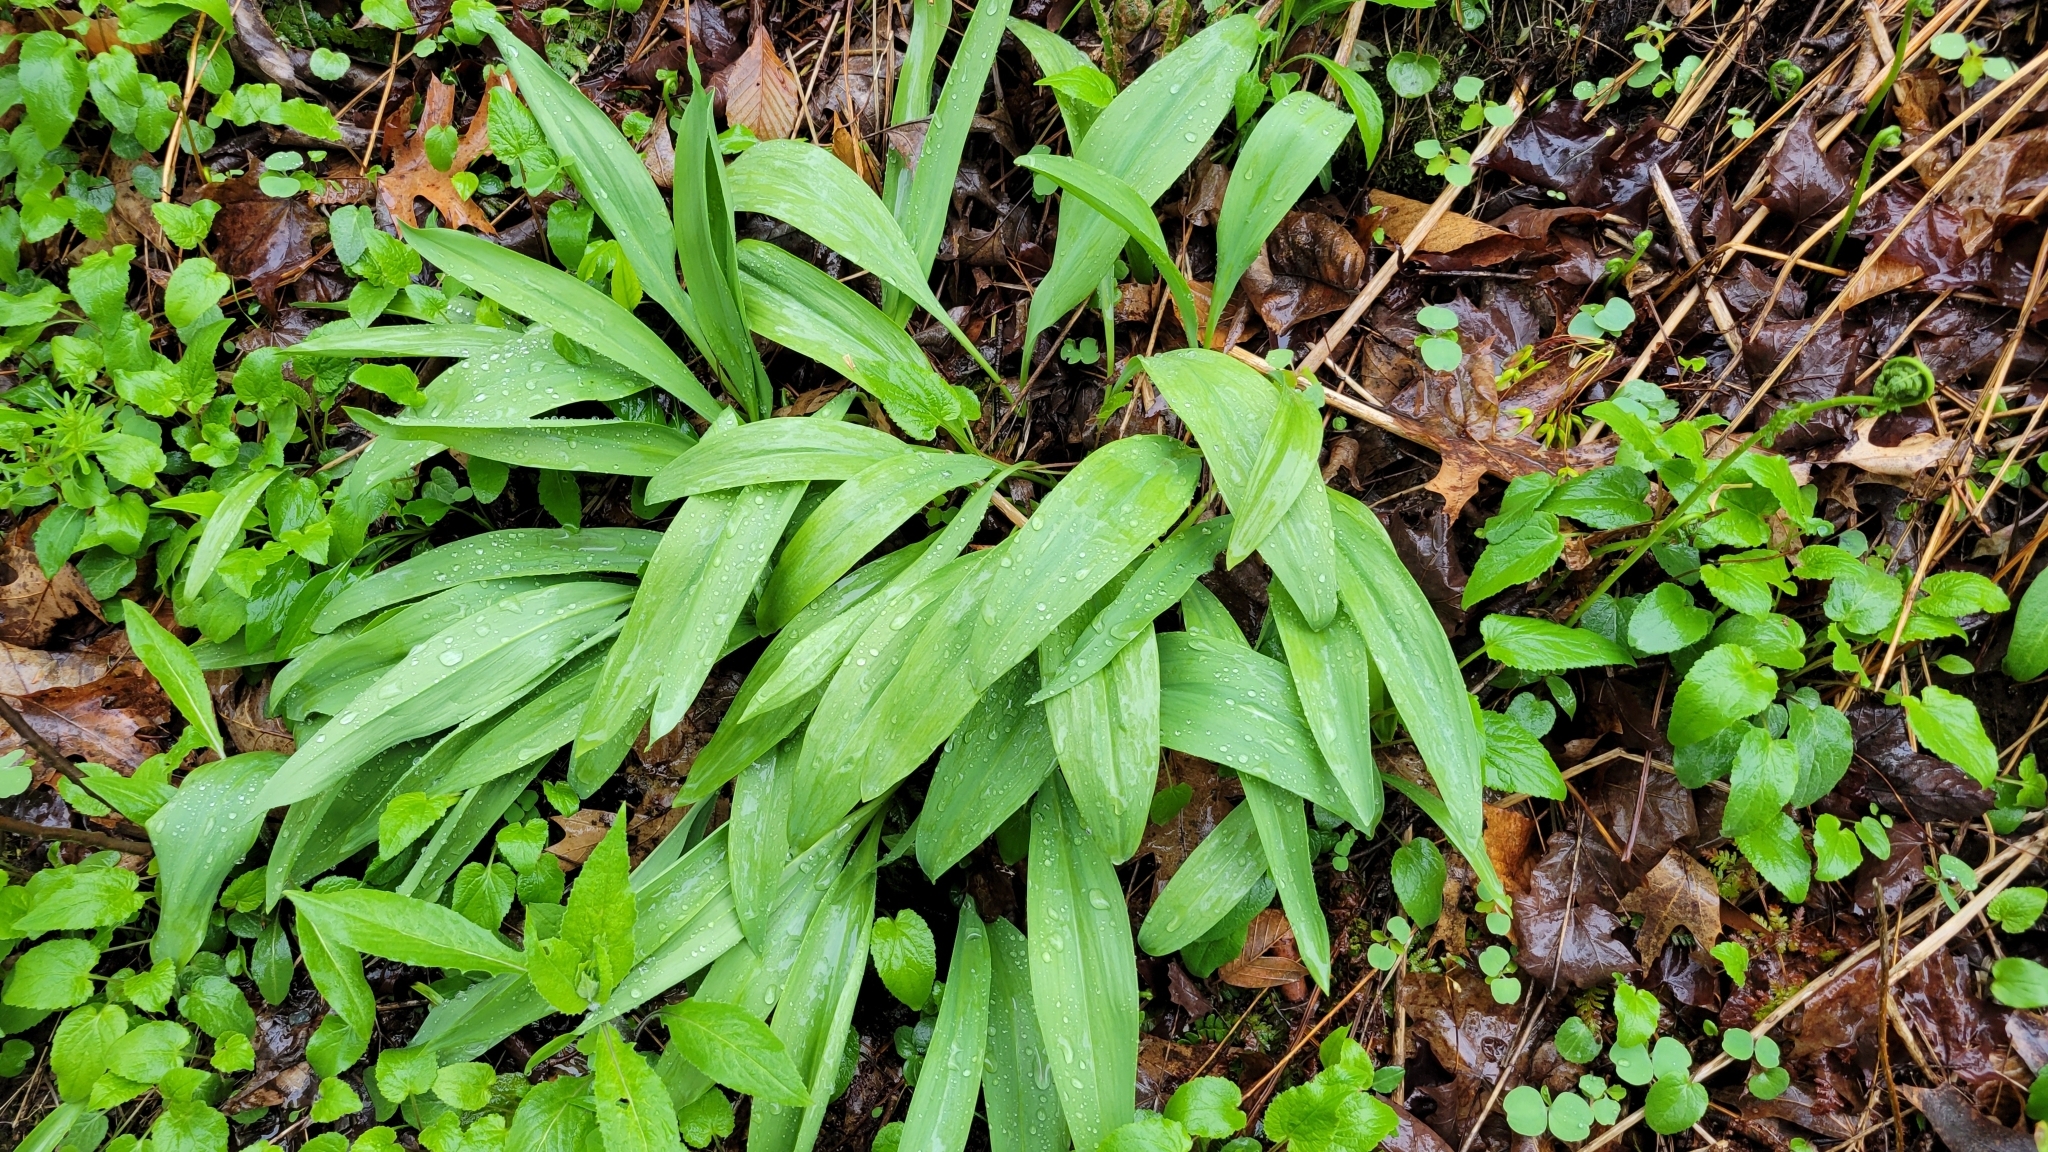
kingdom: Plantae
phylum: Tracheophyta
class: Liliopsida
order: Asparagales
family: Amaryllidaceae
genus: Allium
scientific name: Allium tricoccum
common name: Ramp
